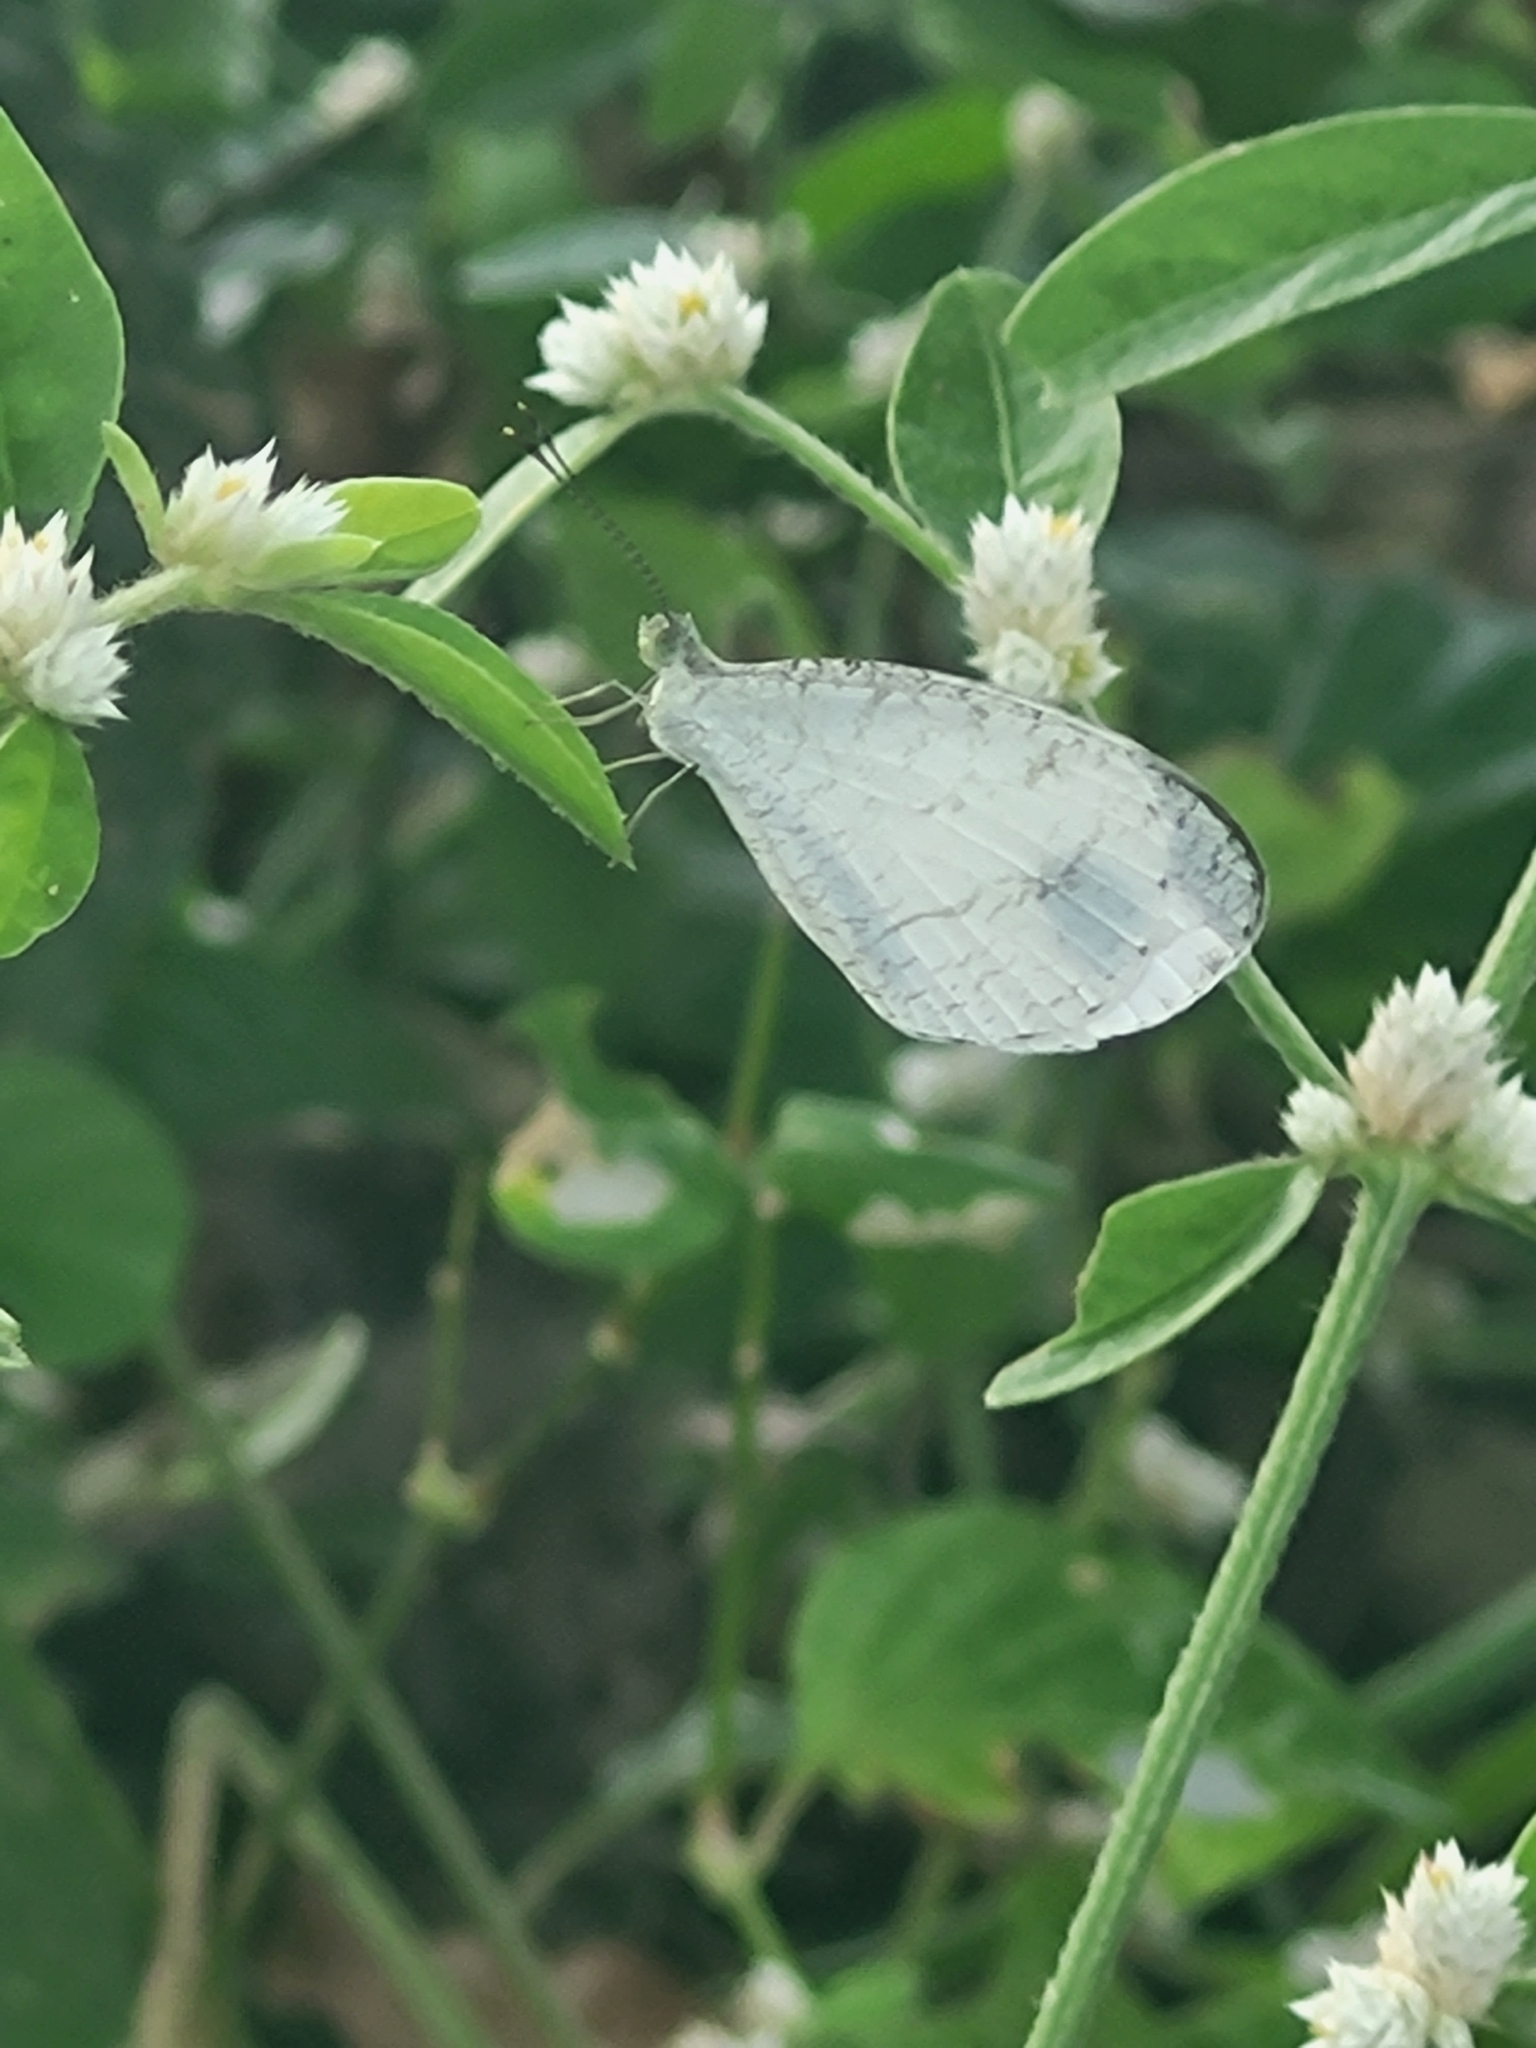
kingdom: Animalia
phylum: Arthropoda
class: Insecta
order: Lepidoptera
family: Pieridae
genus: Leptosia
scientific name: Leptosia nina
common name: Psyche
